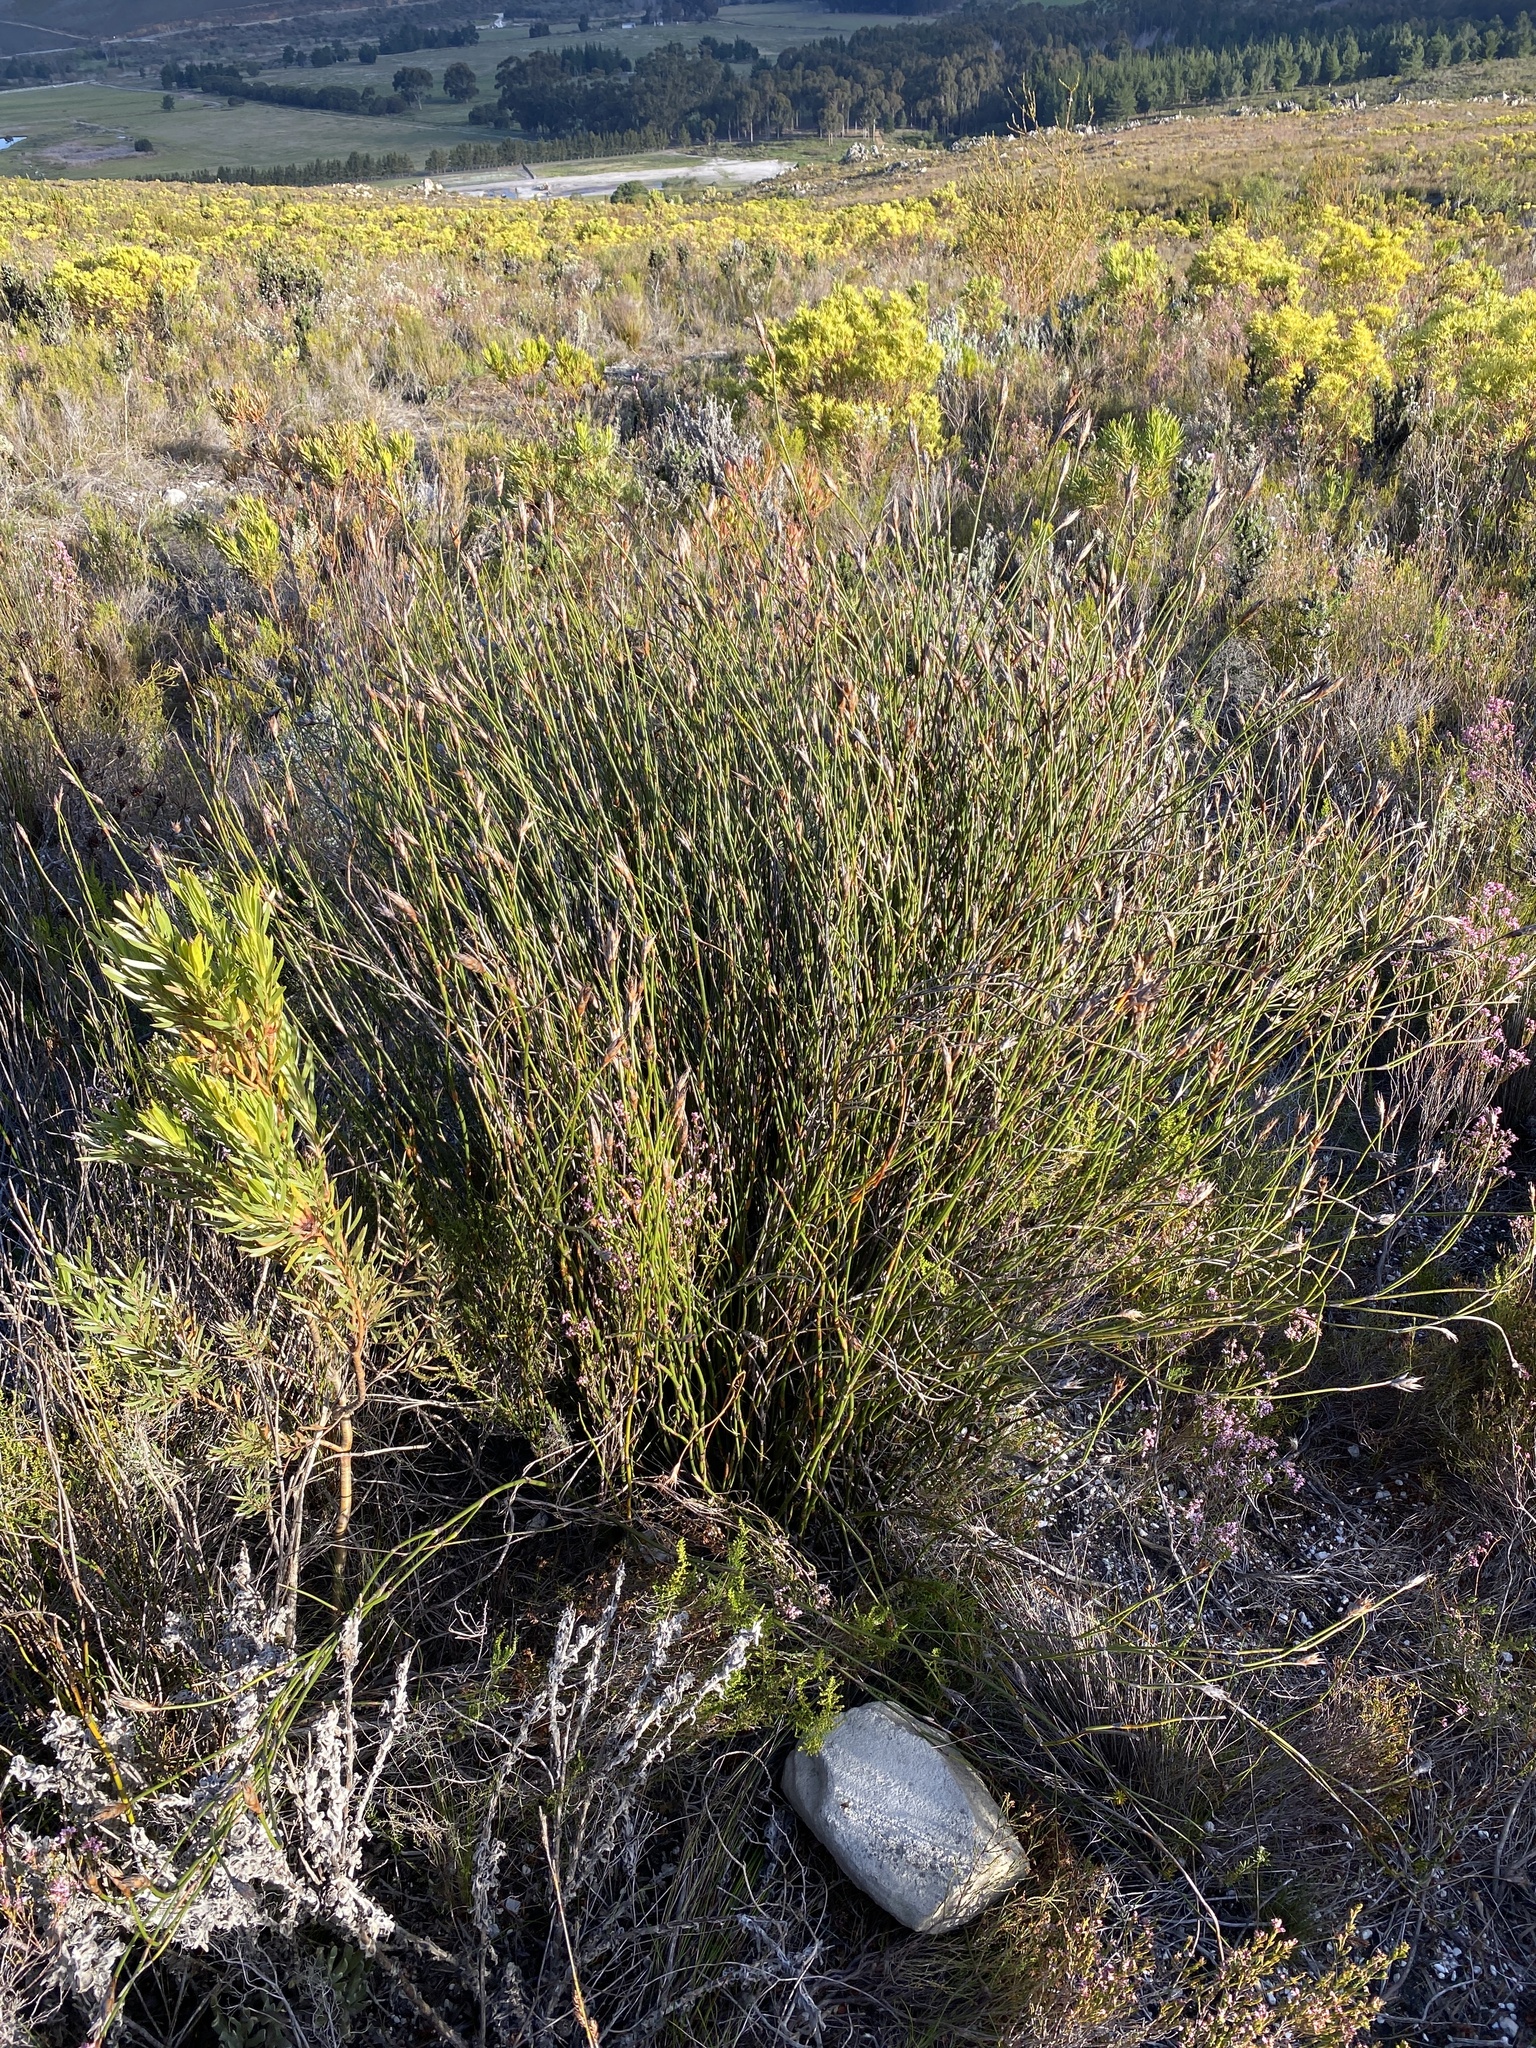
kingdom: Plantae
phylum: Tracheophyta
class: Liliopsida
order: Poales
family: Restionaceae
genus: Restio
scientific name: Restio egregius
